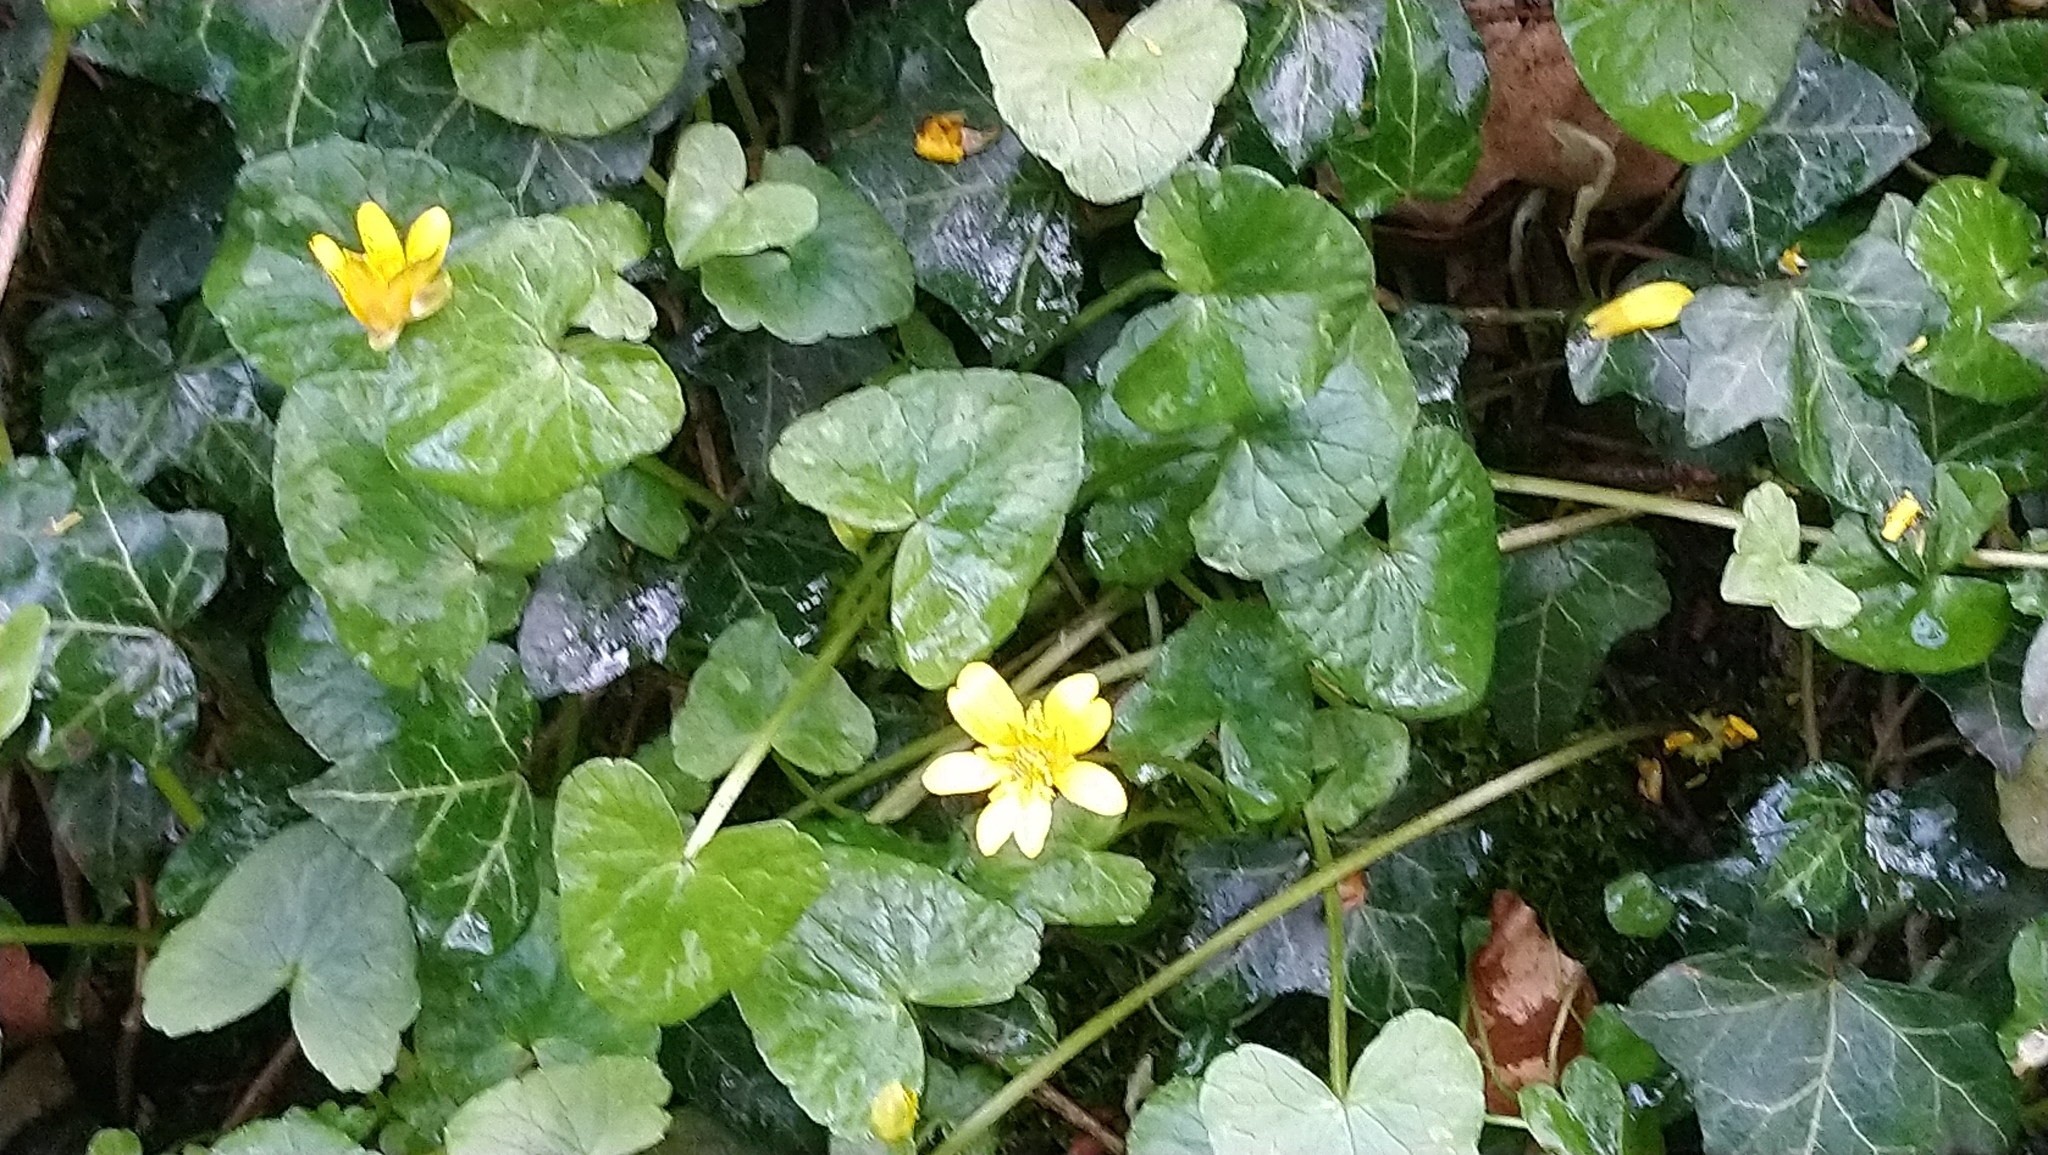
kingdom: Plantae
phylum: Tracheophyta
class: Magnoliopsida
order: Ranunculales
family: Ranunculaceae
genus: Ficaria
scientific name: Ficaria verna
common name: Lesser celandine
